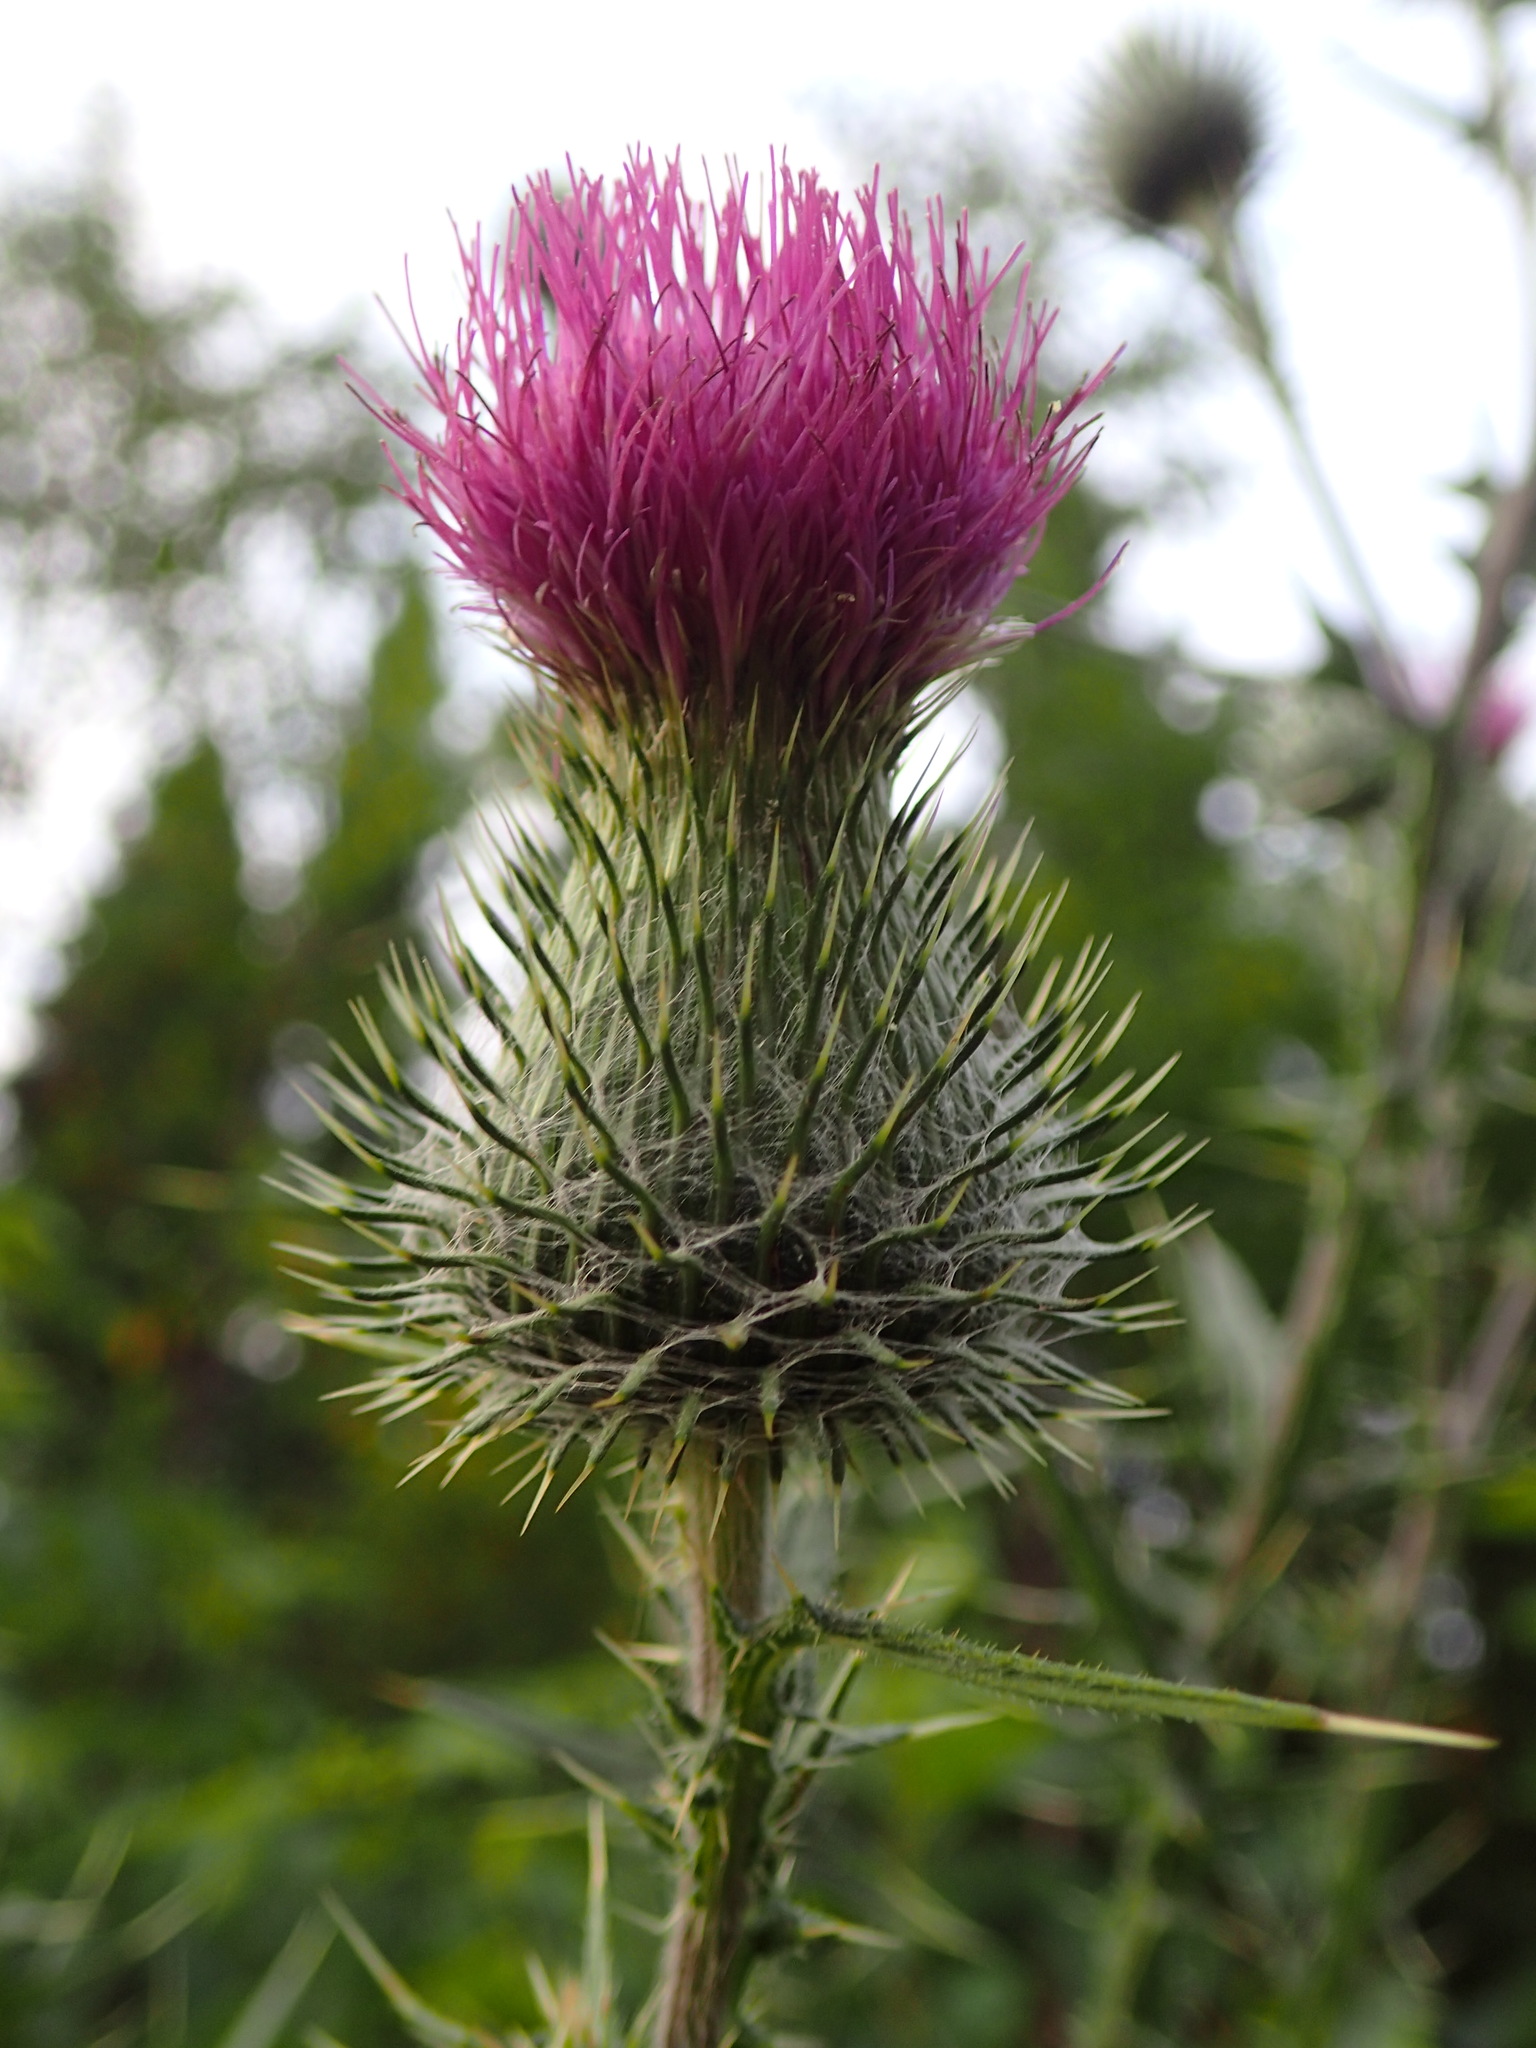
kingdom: Plantae
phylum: Tracheophyta
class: Magnoliopsida
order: Asterales
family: Asteraceae
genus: Cirsium
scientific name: Cirsium vulgare
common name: Bull thistle
